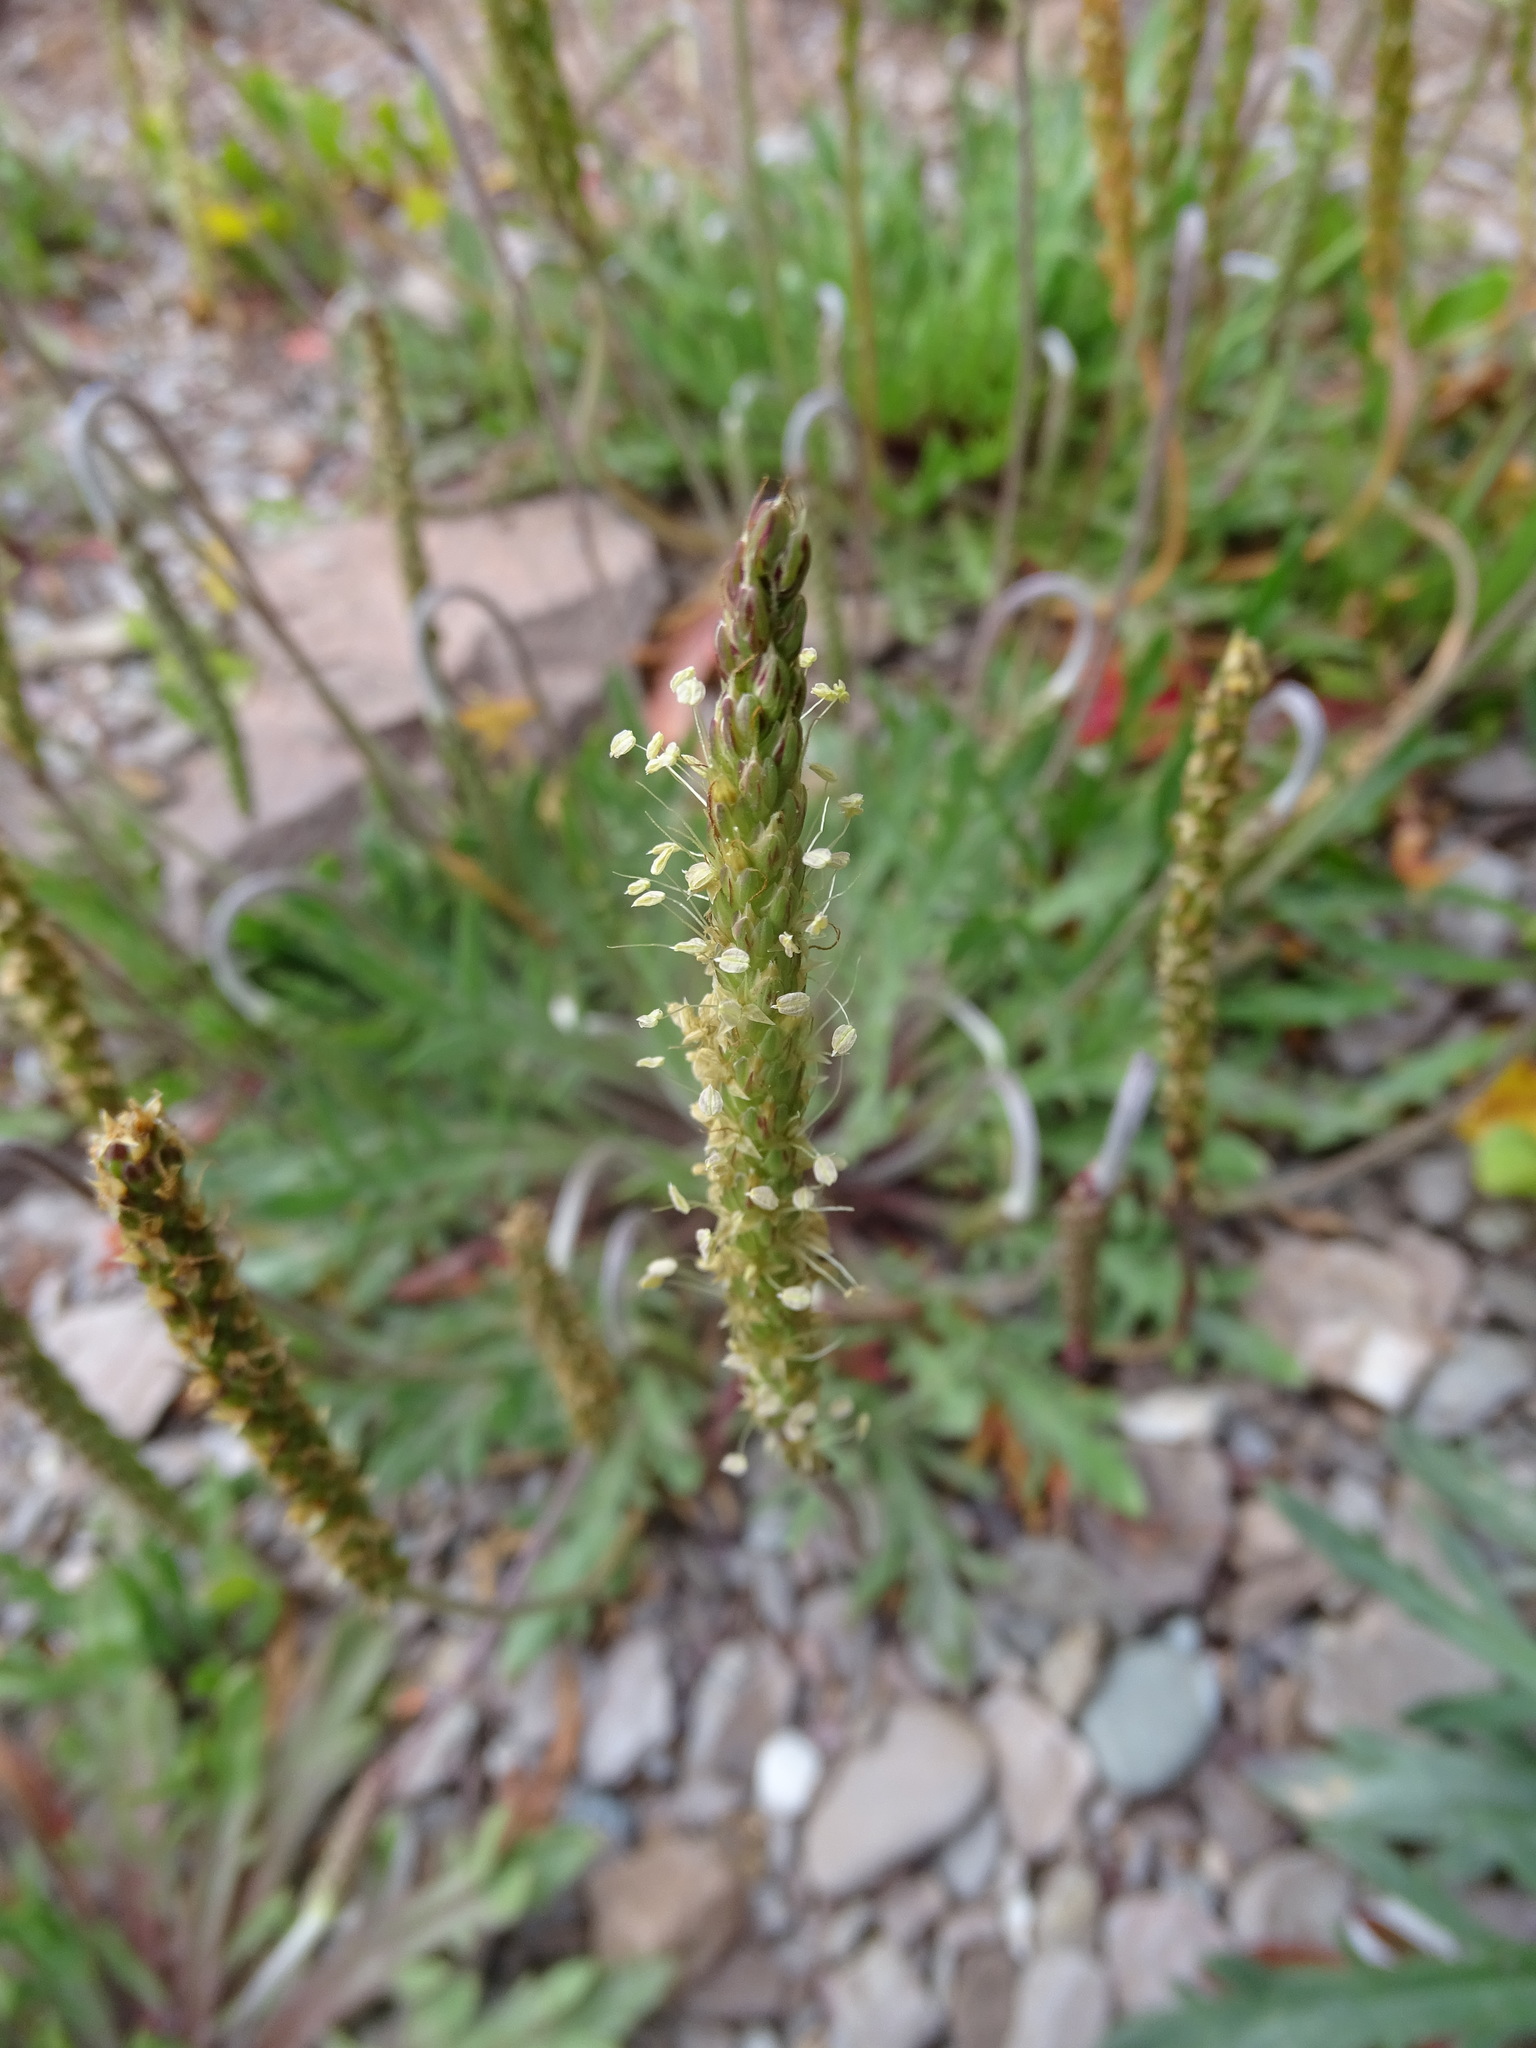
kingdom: Plantae
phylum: Tracheophyta
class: Magnoliopsida
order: Lamiales
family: Plantaginaceae
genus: Plantago
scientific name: Plantago coronopus
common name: Buck's-horn plantain
